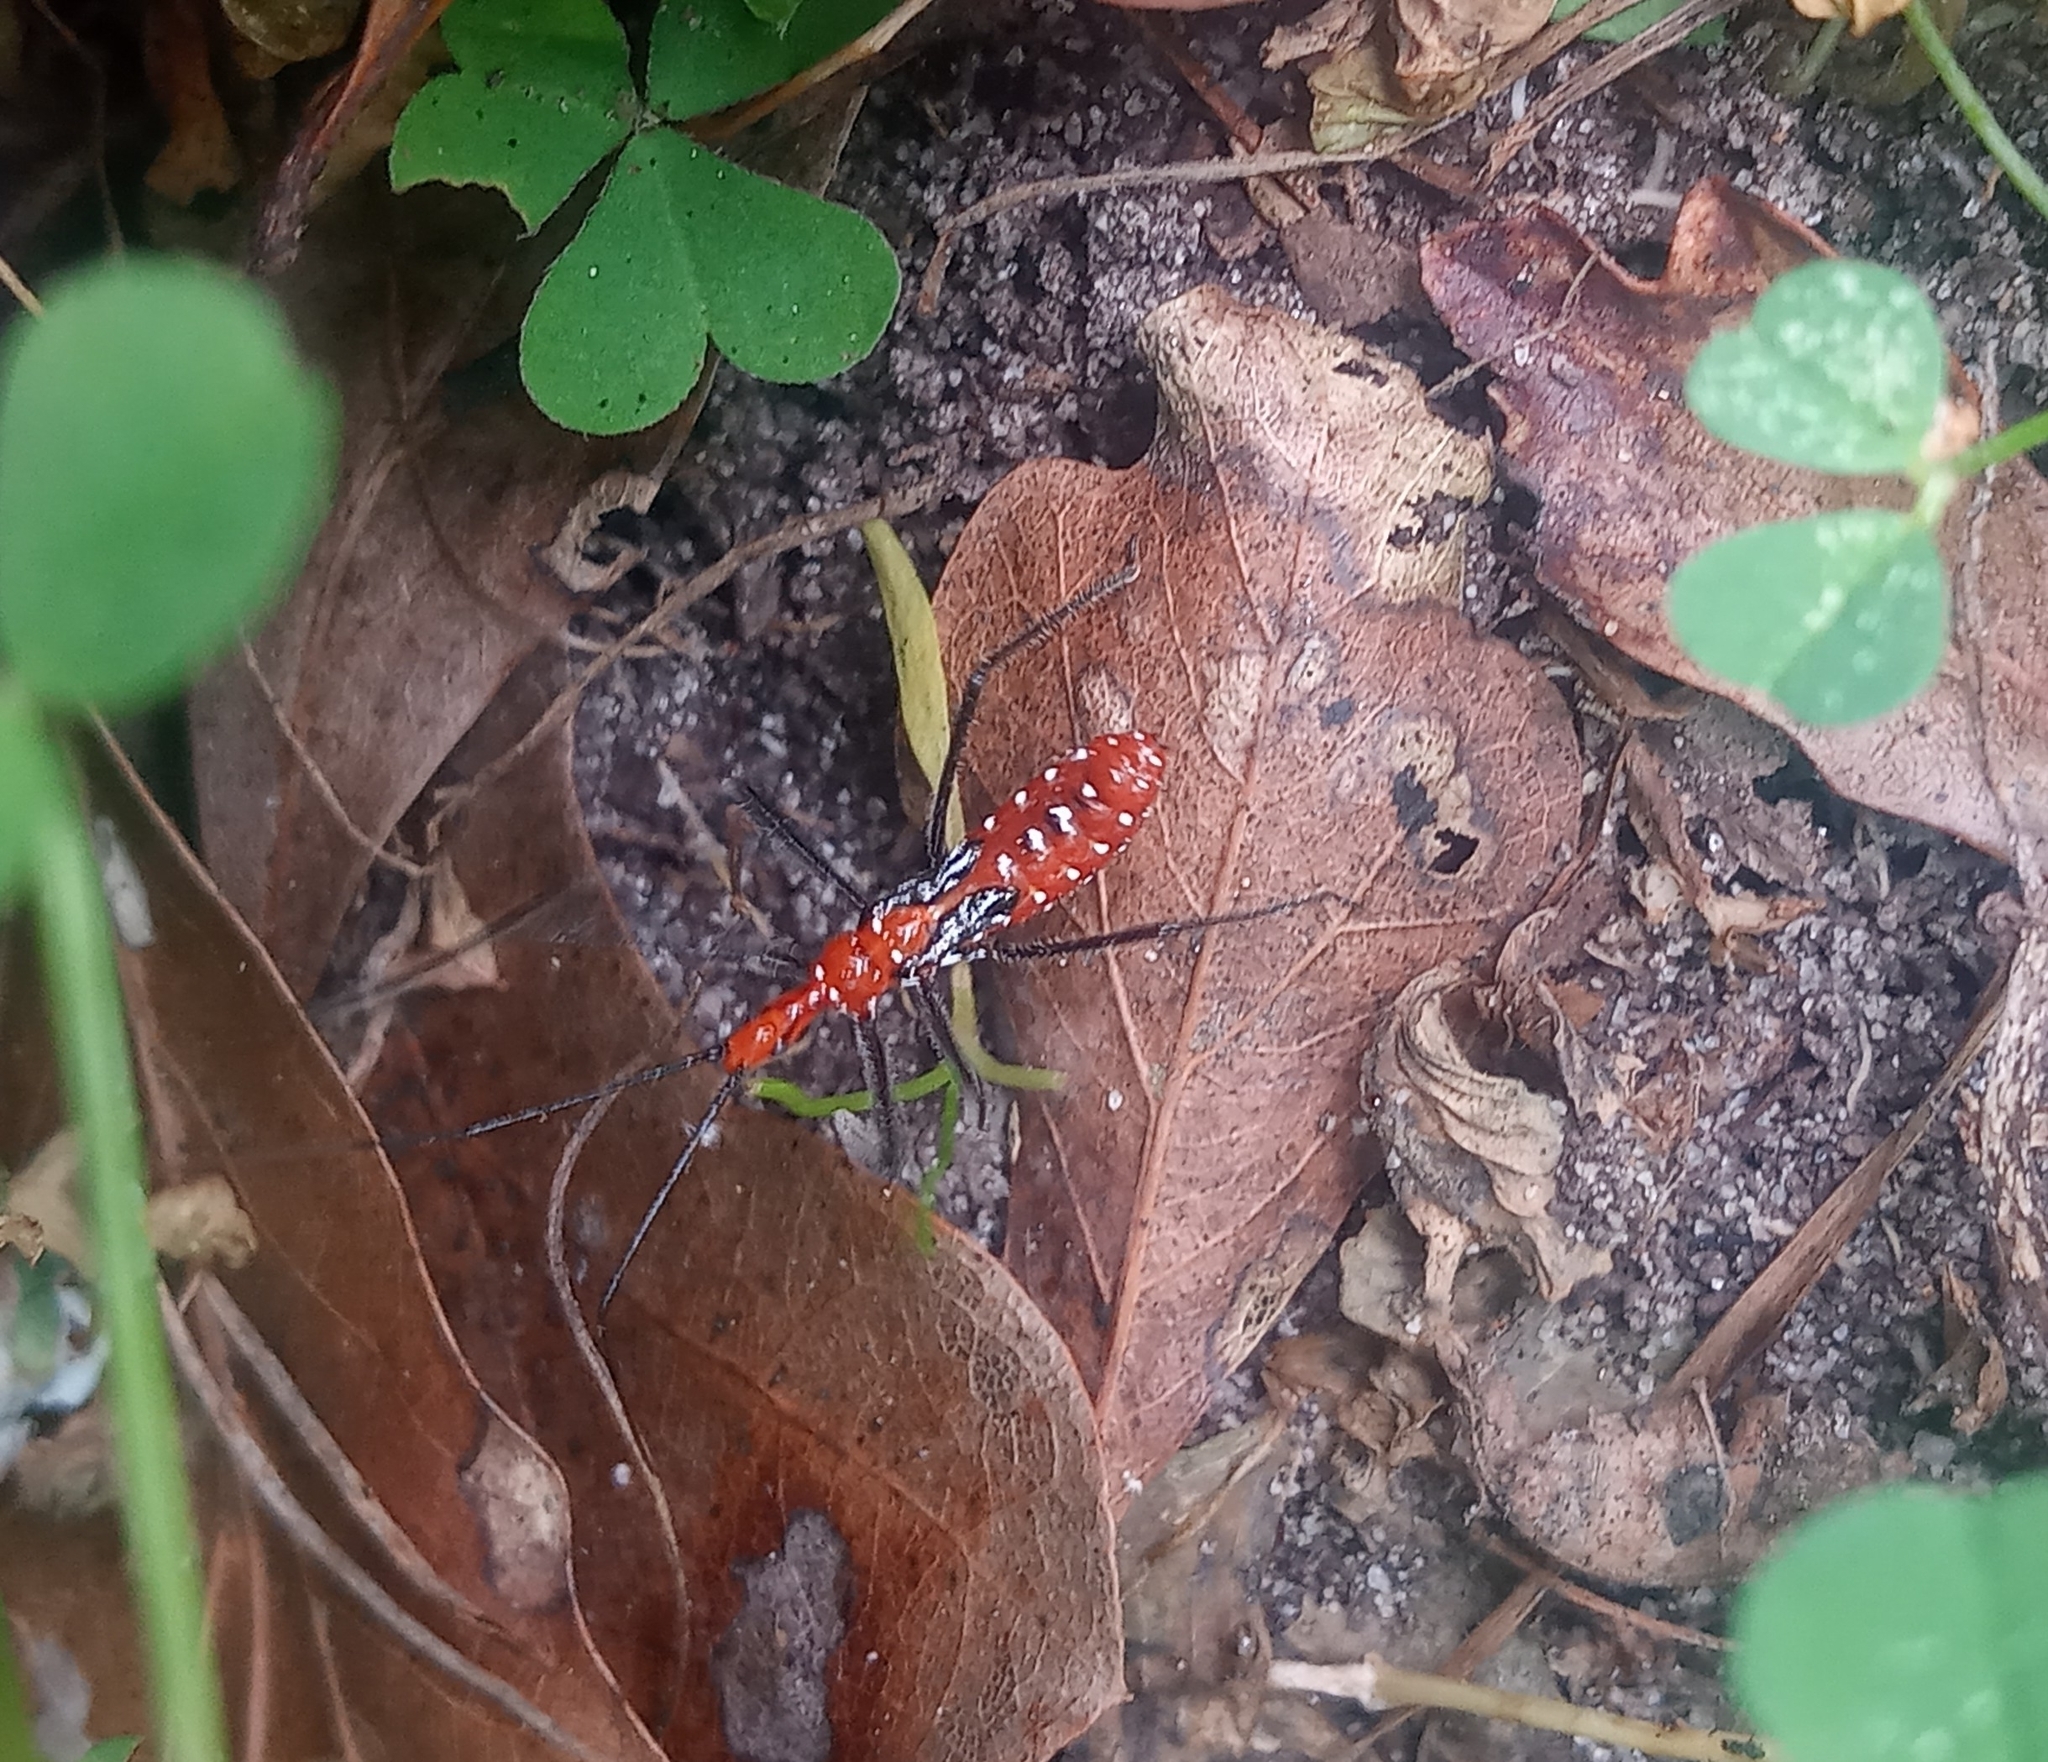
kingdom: Animalia
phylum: Arthropoda
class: Insecta
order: Hemiptera
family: Reduviidae
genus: Zelus
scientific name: Zelus longipes
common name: Milkweed assassin bug
